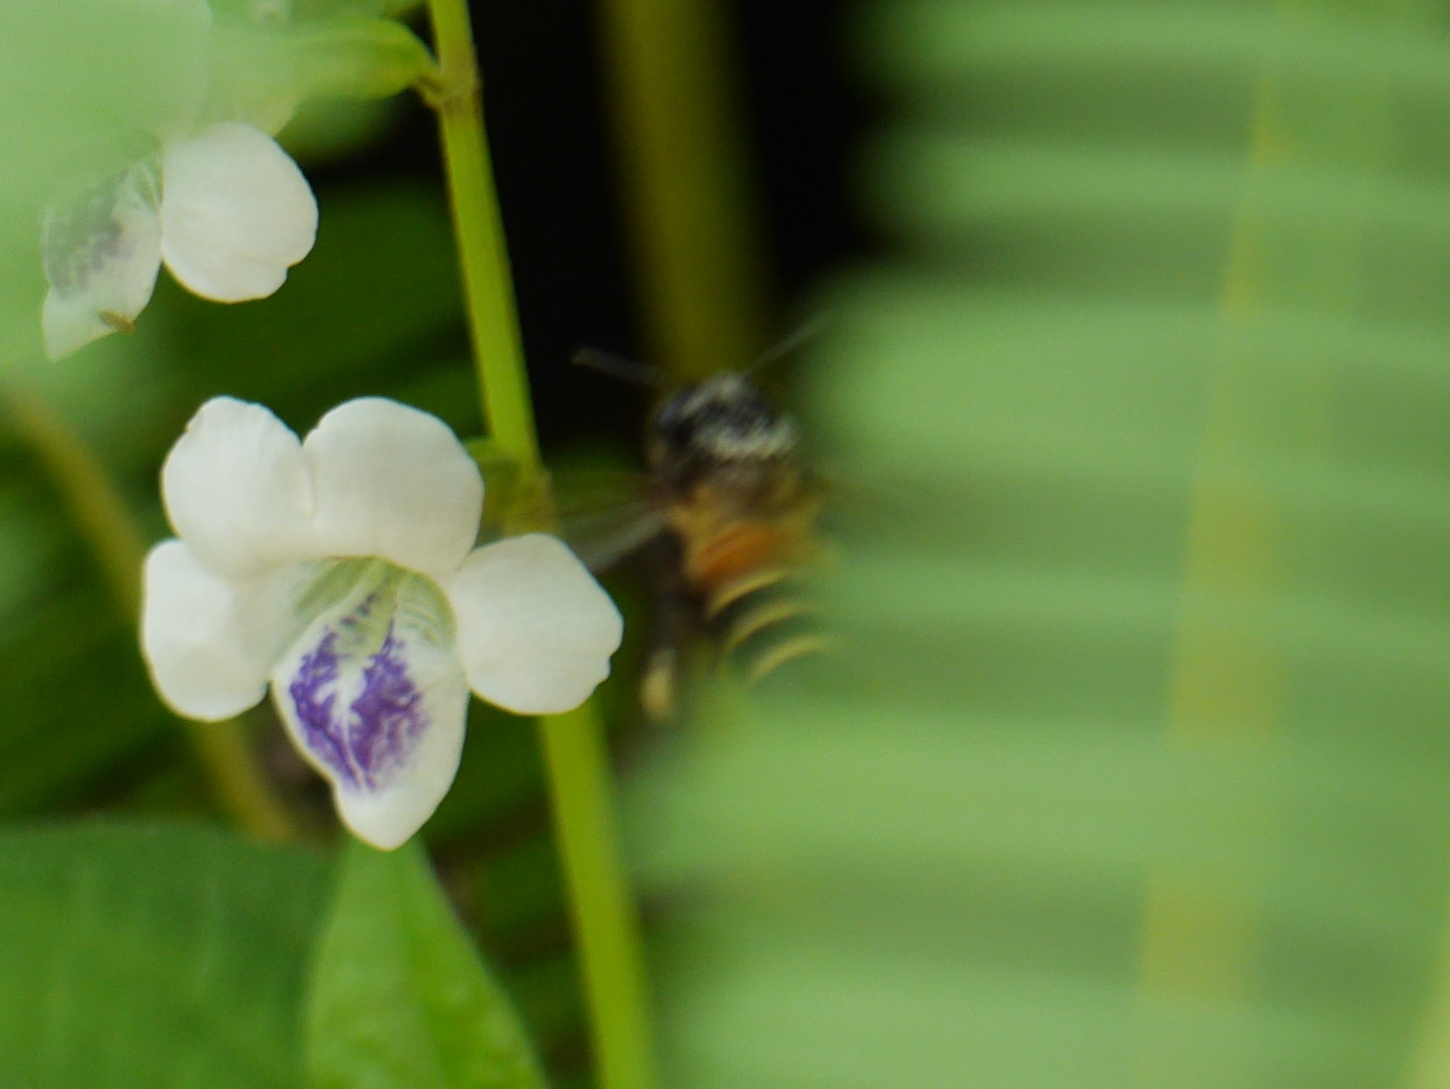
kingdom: Animalia
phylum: Arthropoda
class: Insecta
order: Hymenoptera
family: Apidae
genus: Apis
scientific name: Apis dorsata
